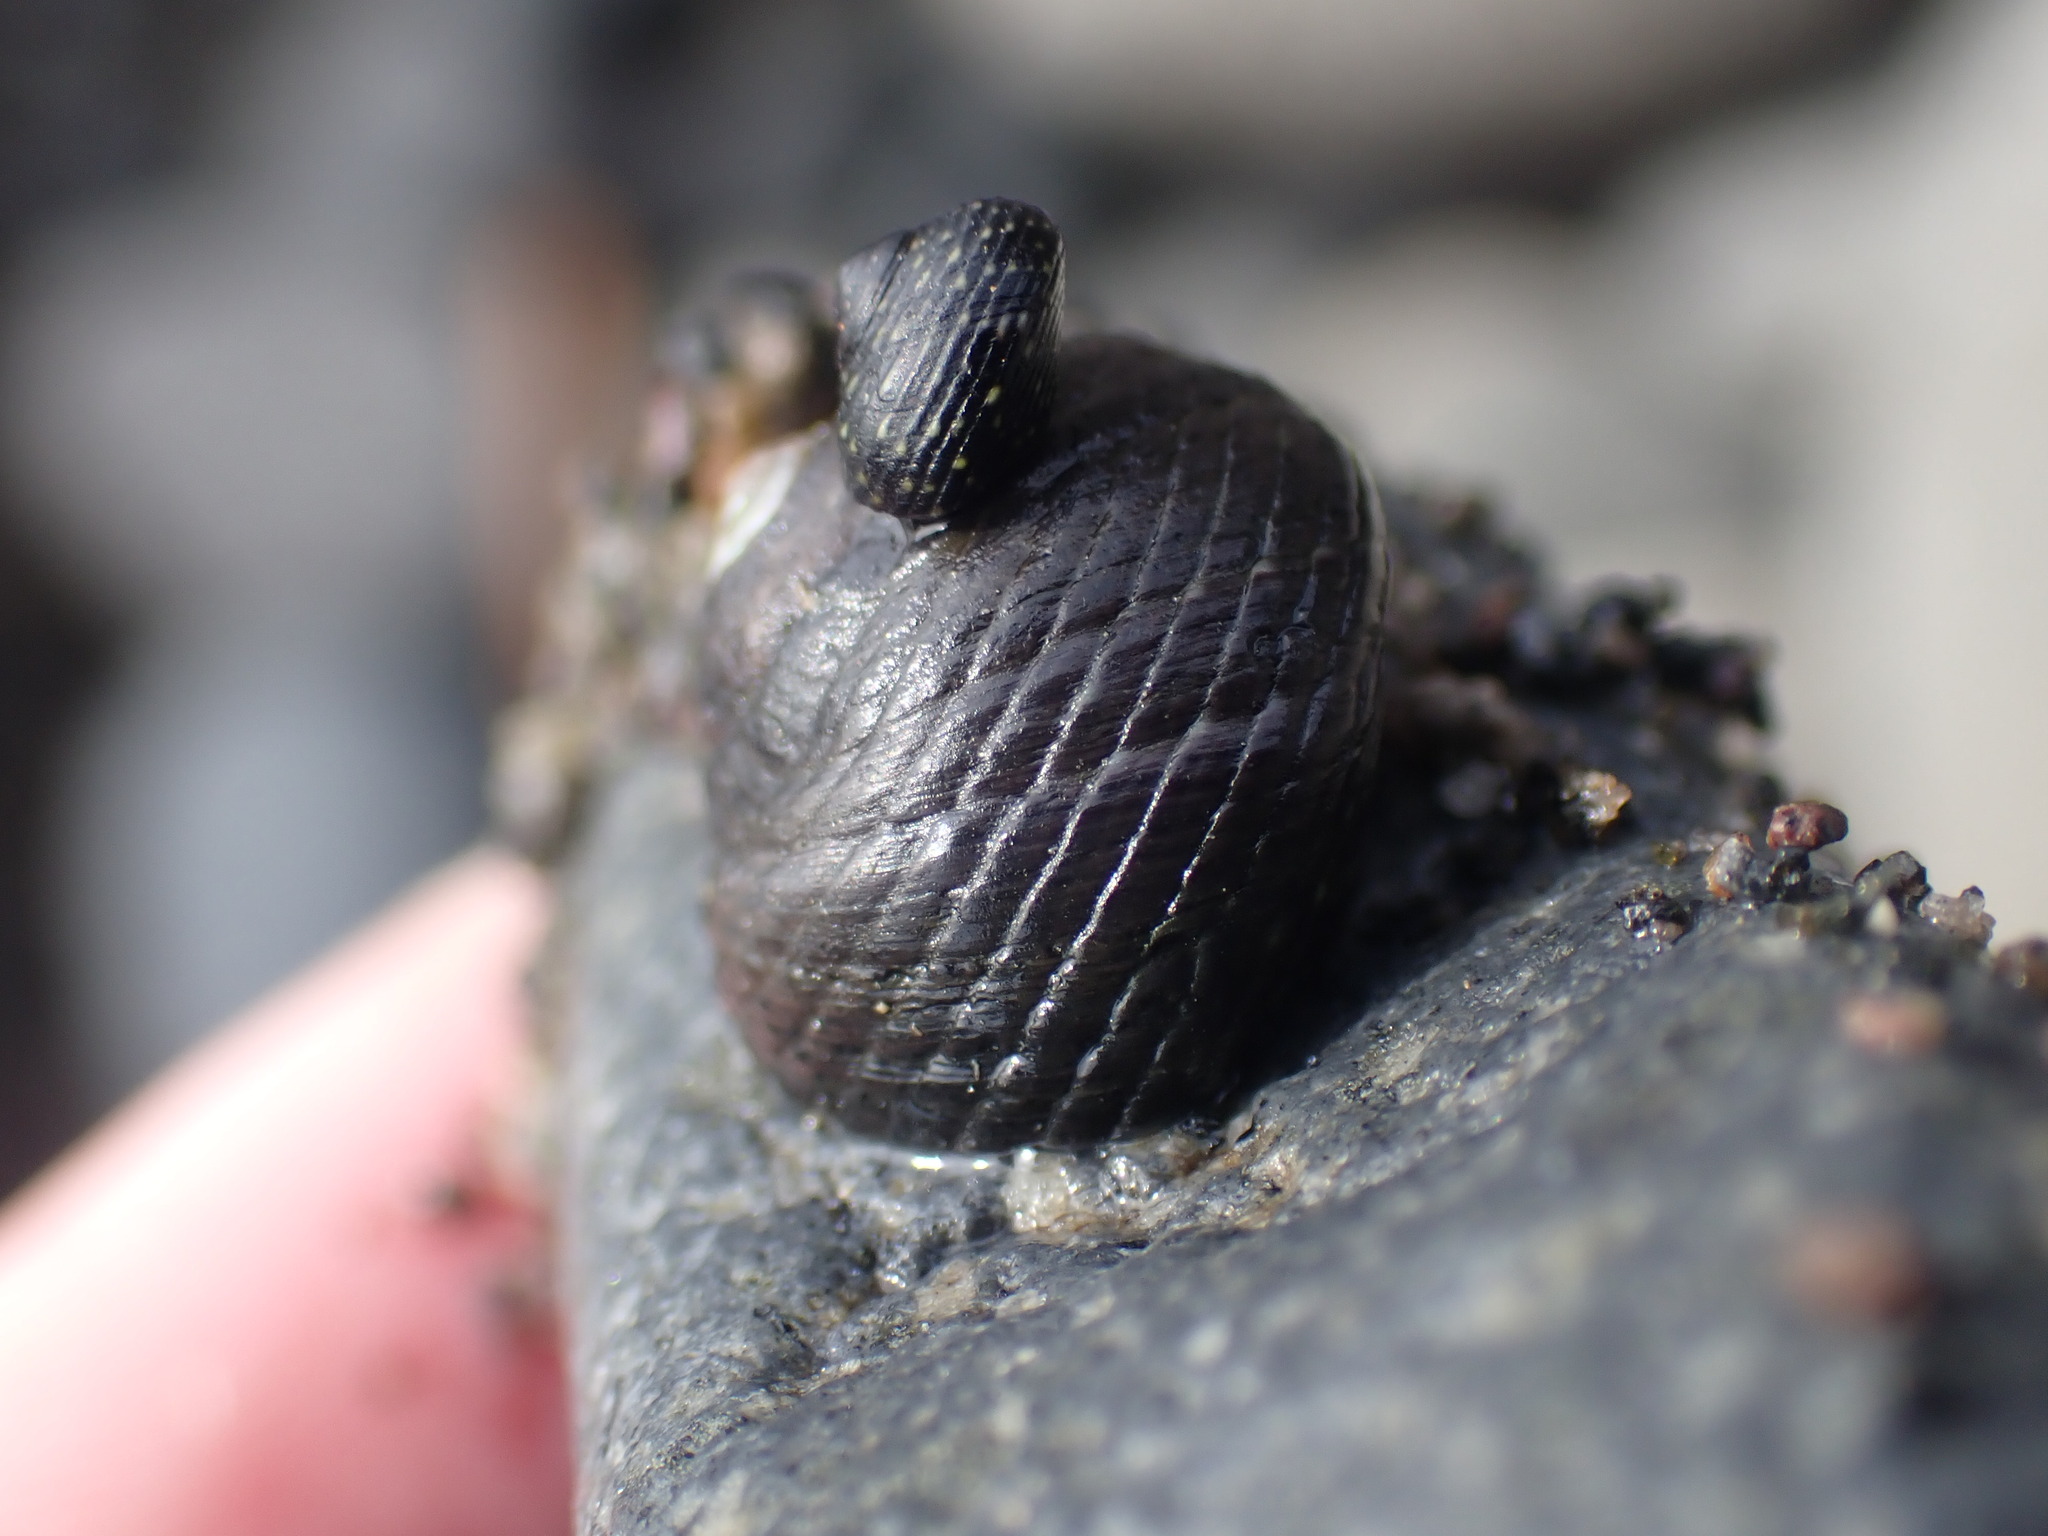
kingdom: Animalia
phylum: Mollusca
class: Gastropoda
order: Trochida
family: Trochidae
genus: Diloma
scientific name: Diloma zelandicum
